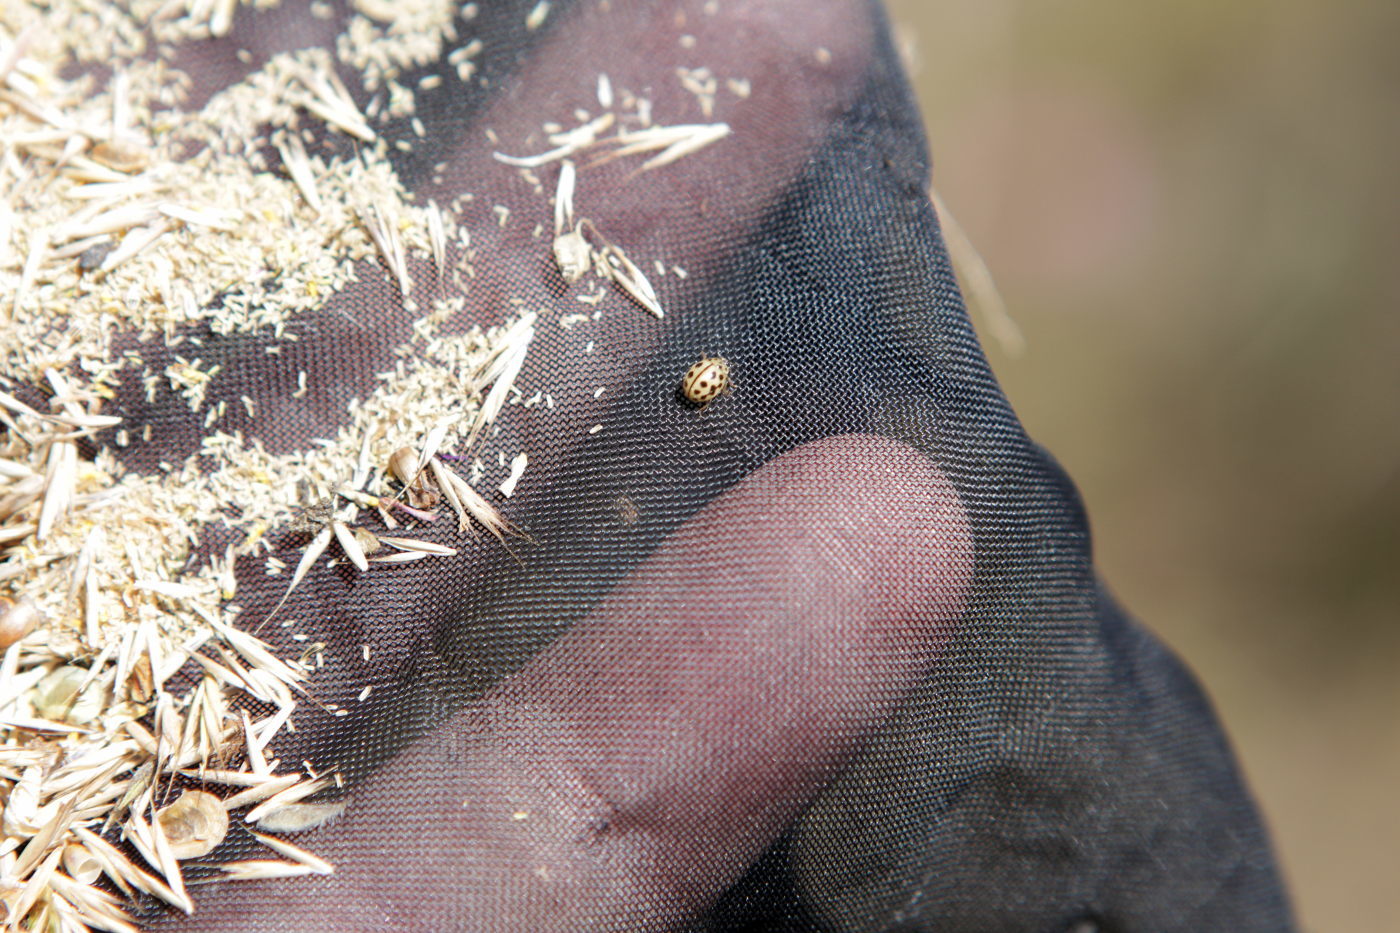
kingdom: Animalia
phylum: Arthropoda
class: Insecta
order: Coleoptera
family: Coccinellidae
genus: Tytthaspis
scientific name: Tytthaspis sedecimpunctata
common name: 16-spot ladybird
